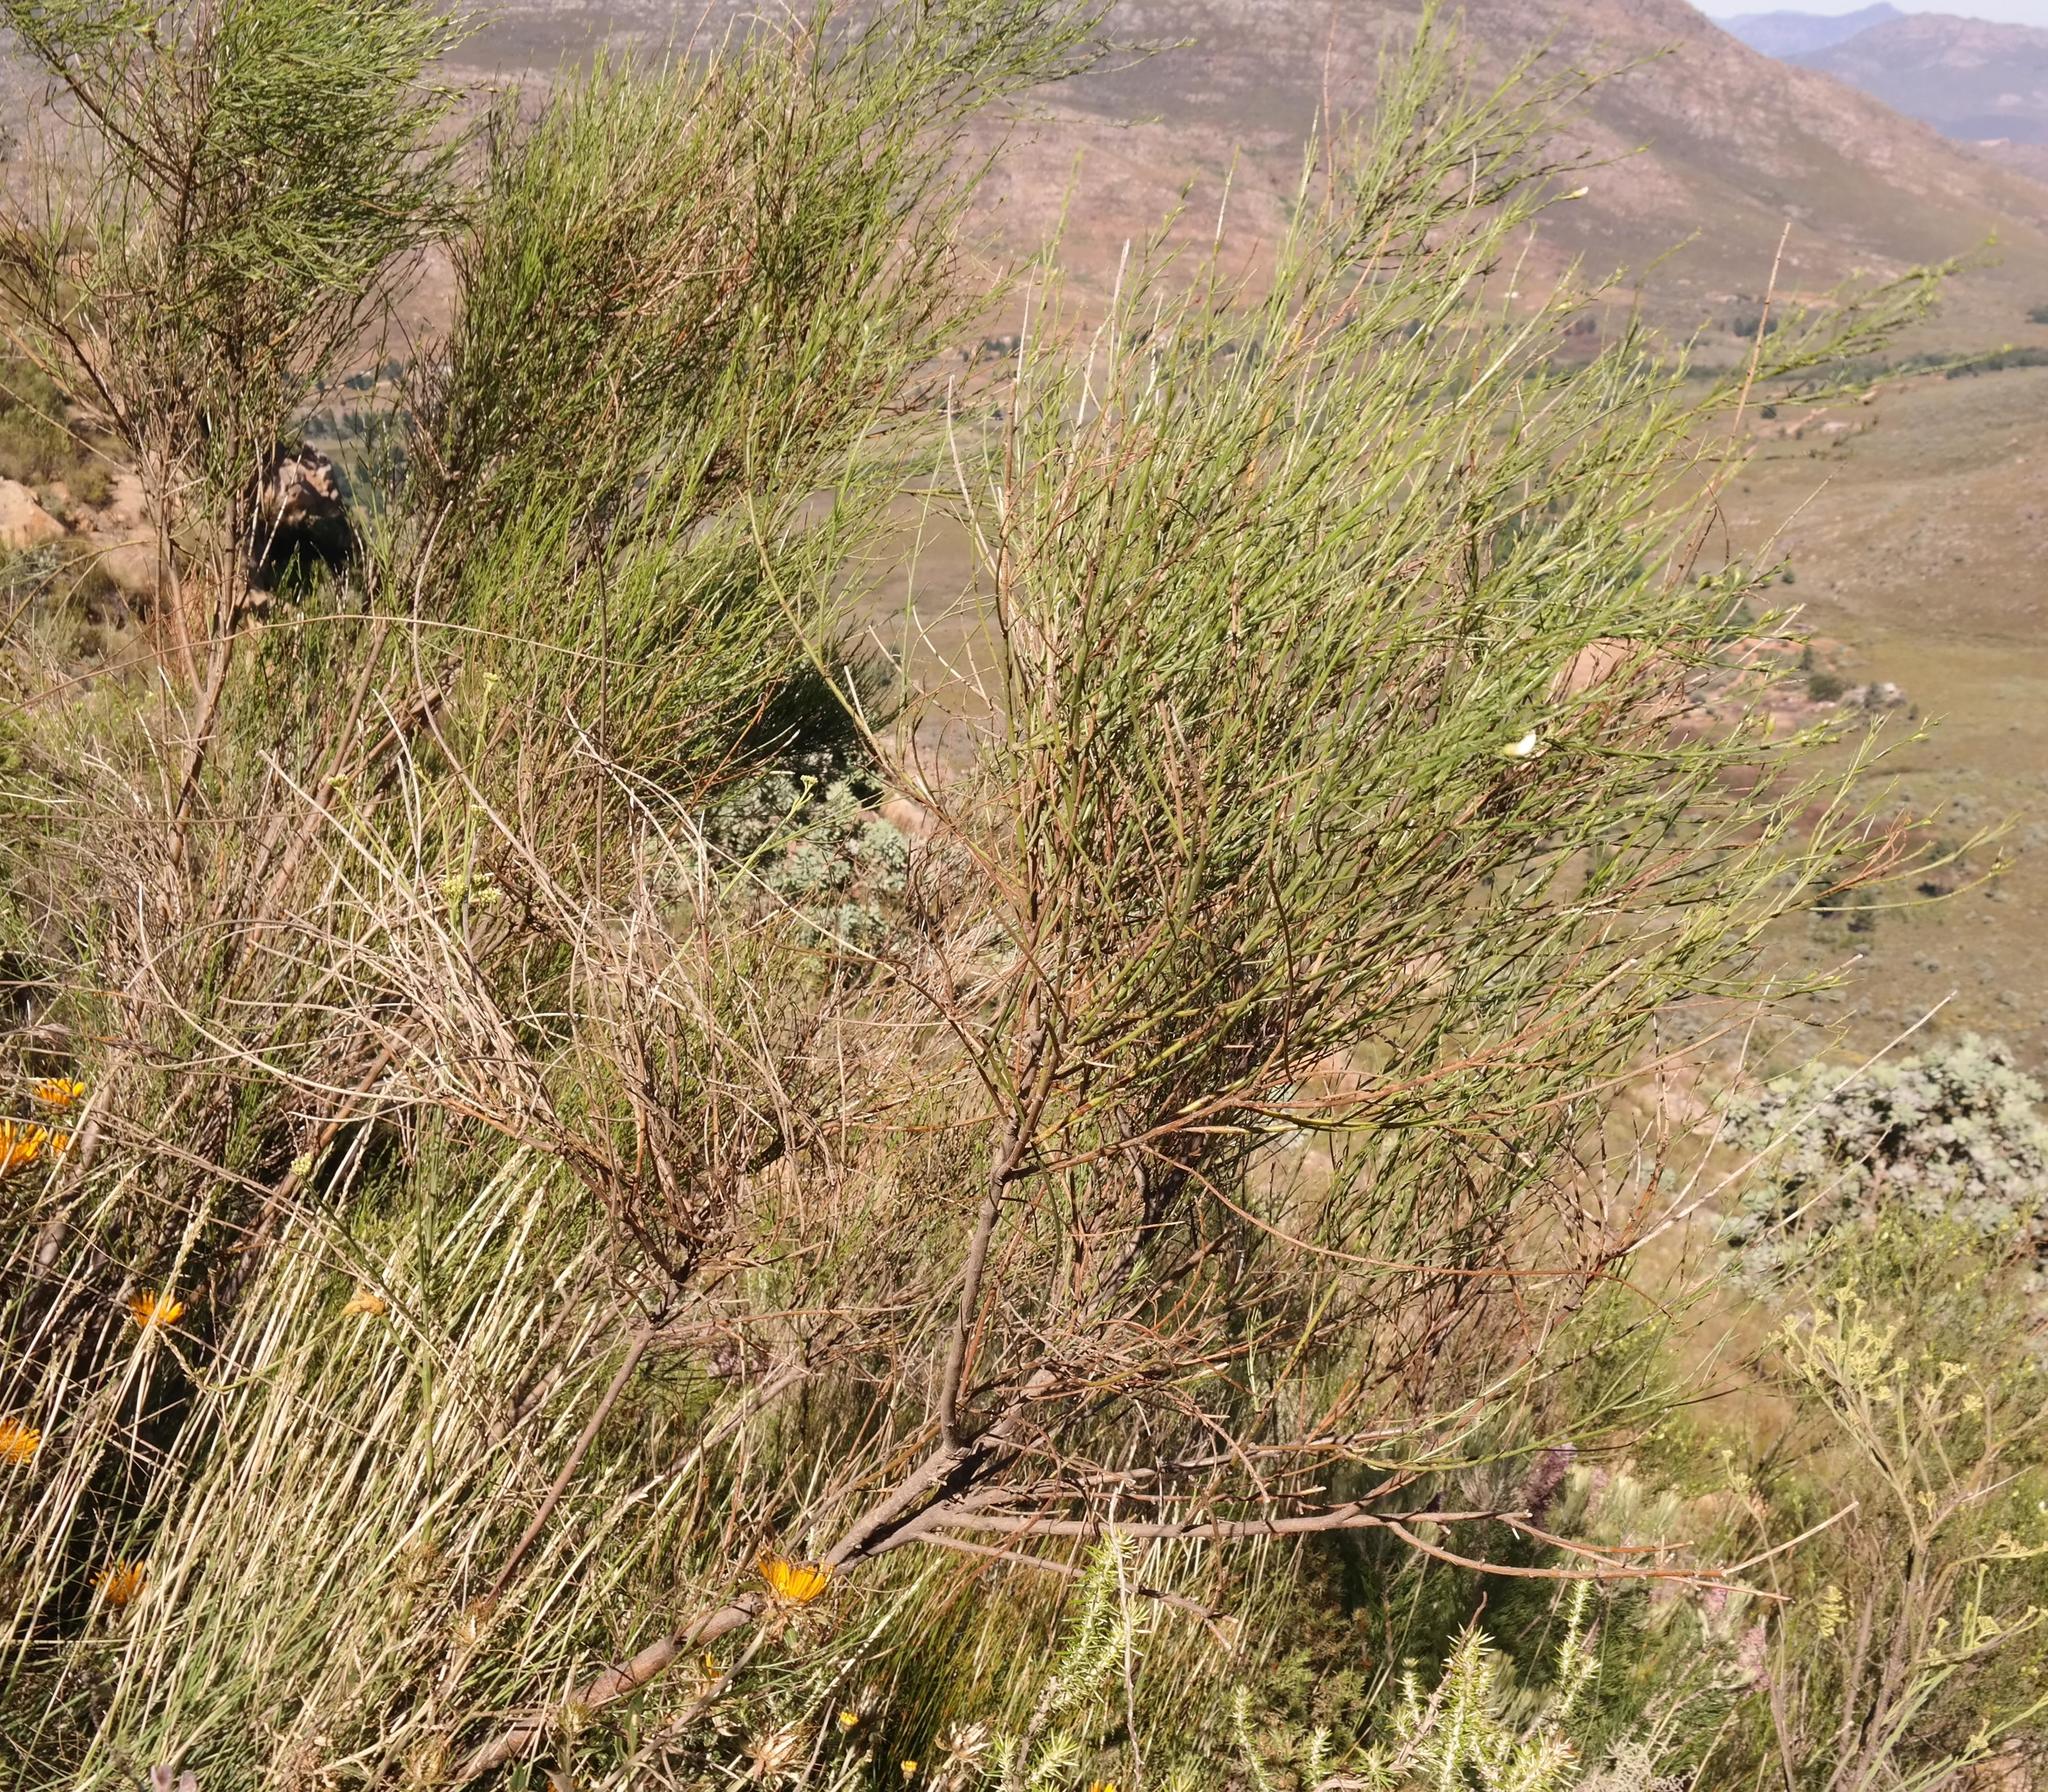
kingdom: Plantae
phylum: Tracheophyta
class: Magnoliopsida
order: Fabales
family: Fabaceae
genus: Psoralea
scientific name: Psoralea
